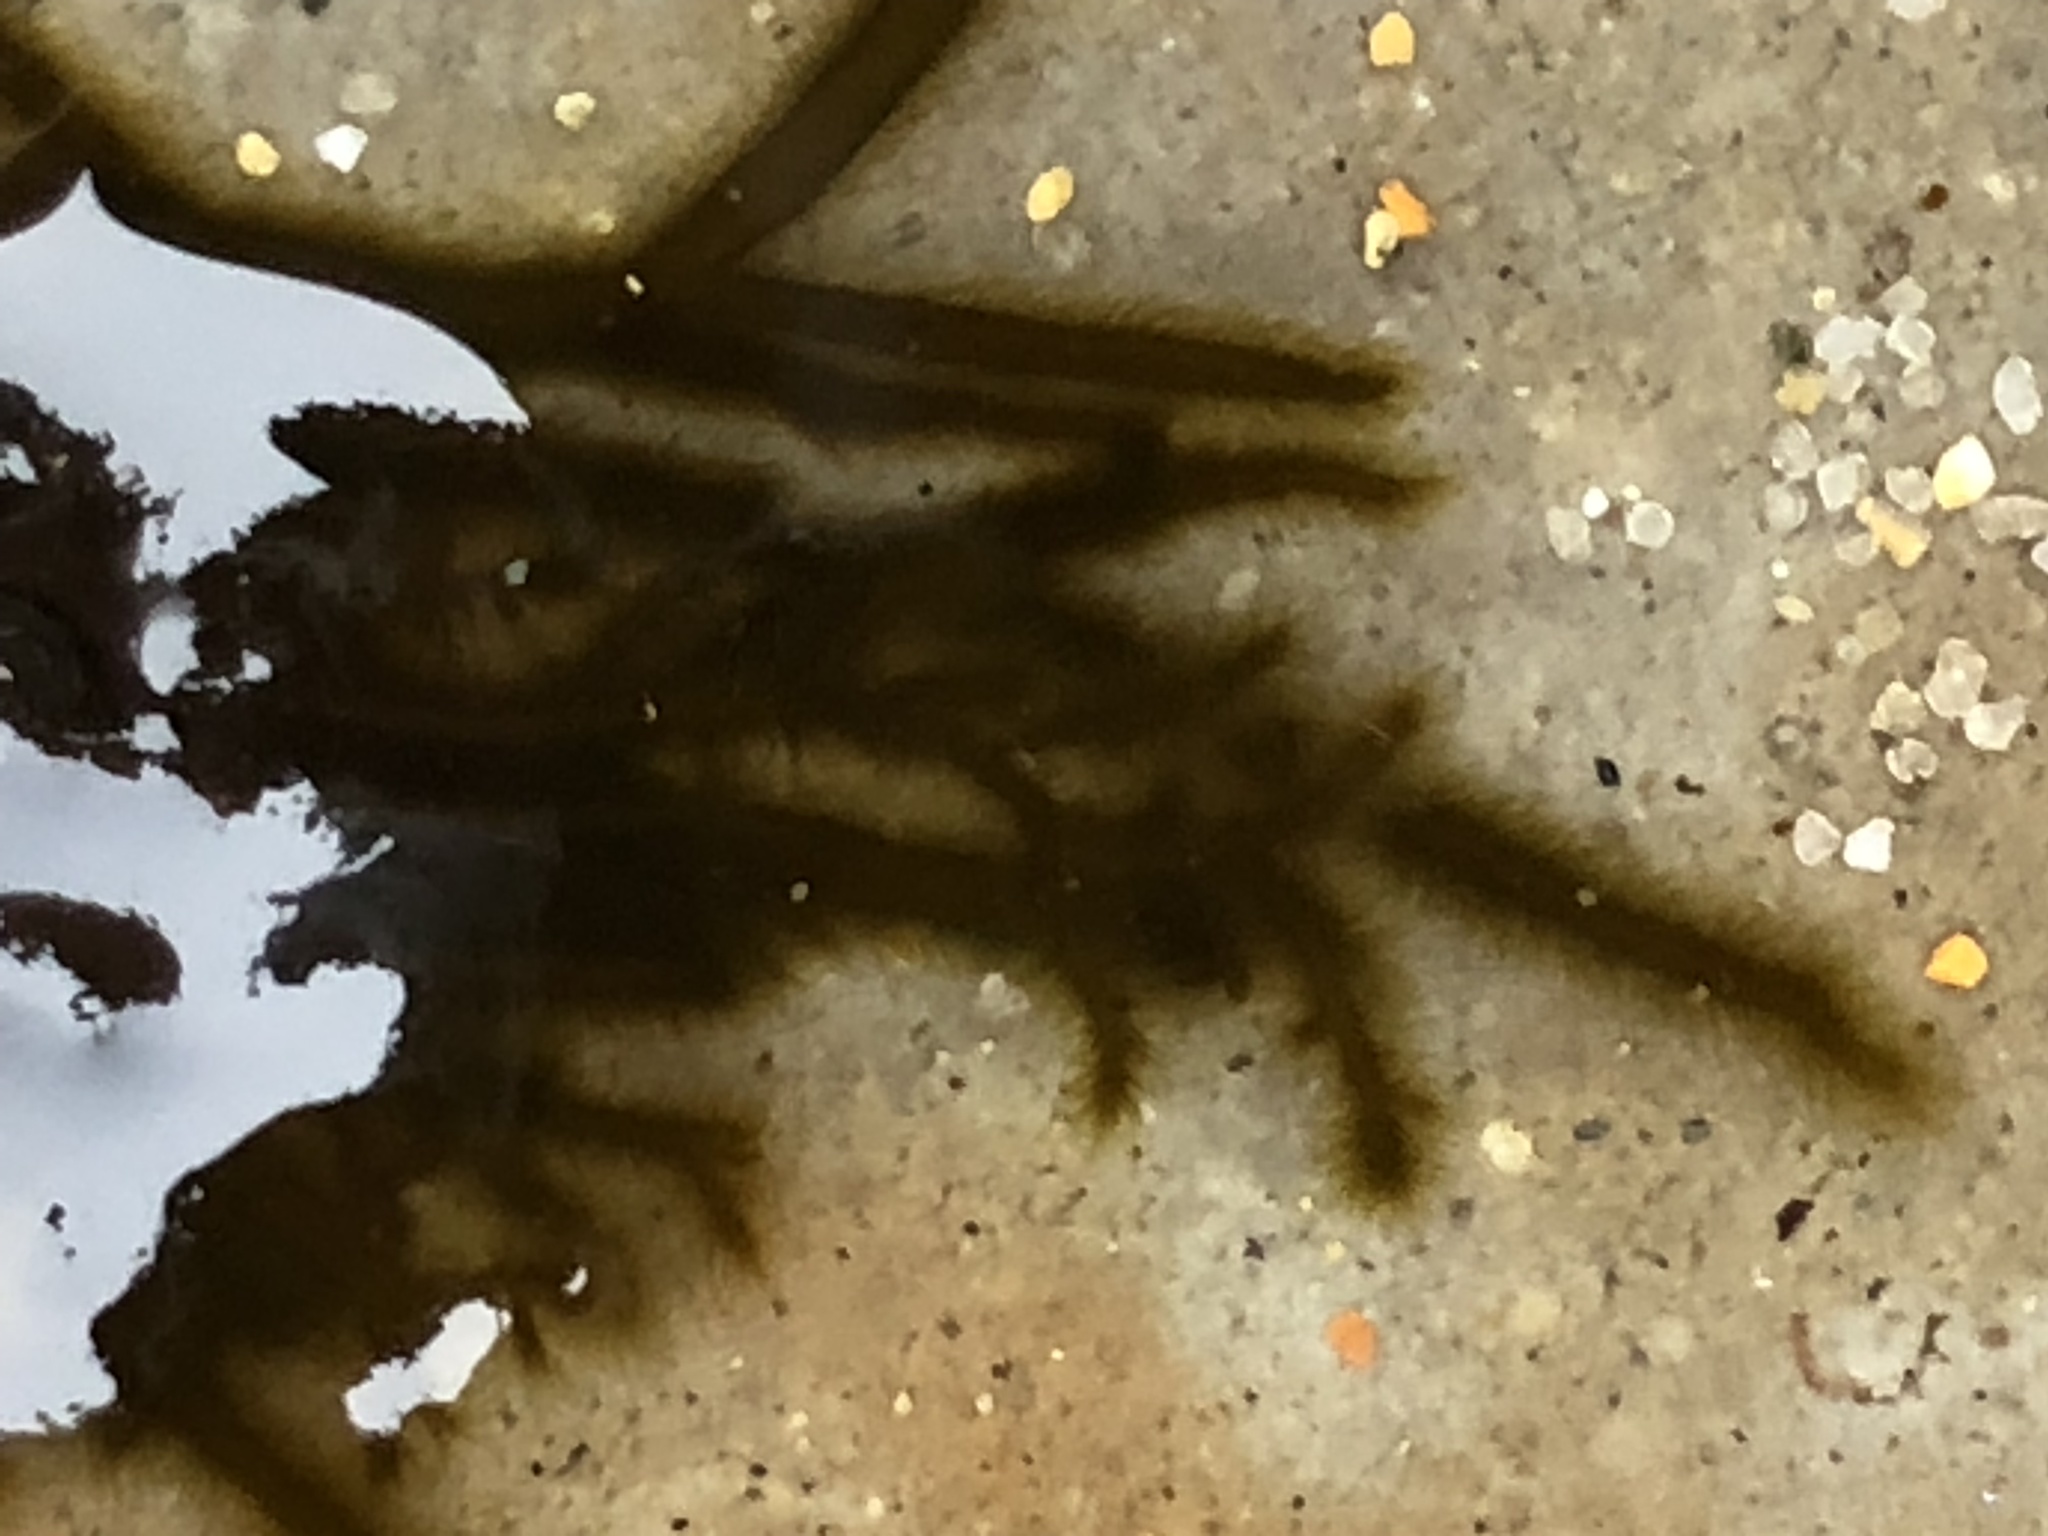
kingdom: Chromista
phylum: Ochrophyta
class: Phaeophyceae
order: Ectocarpales
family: Chordariaceae
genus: Haplogloia
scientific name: Haplogloia andersonii
